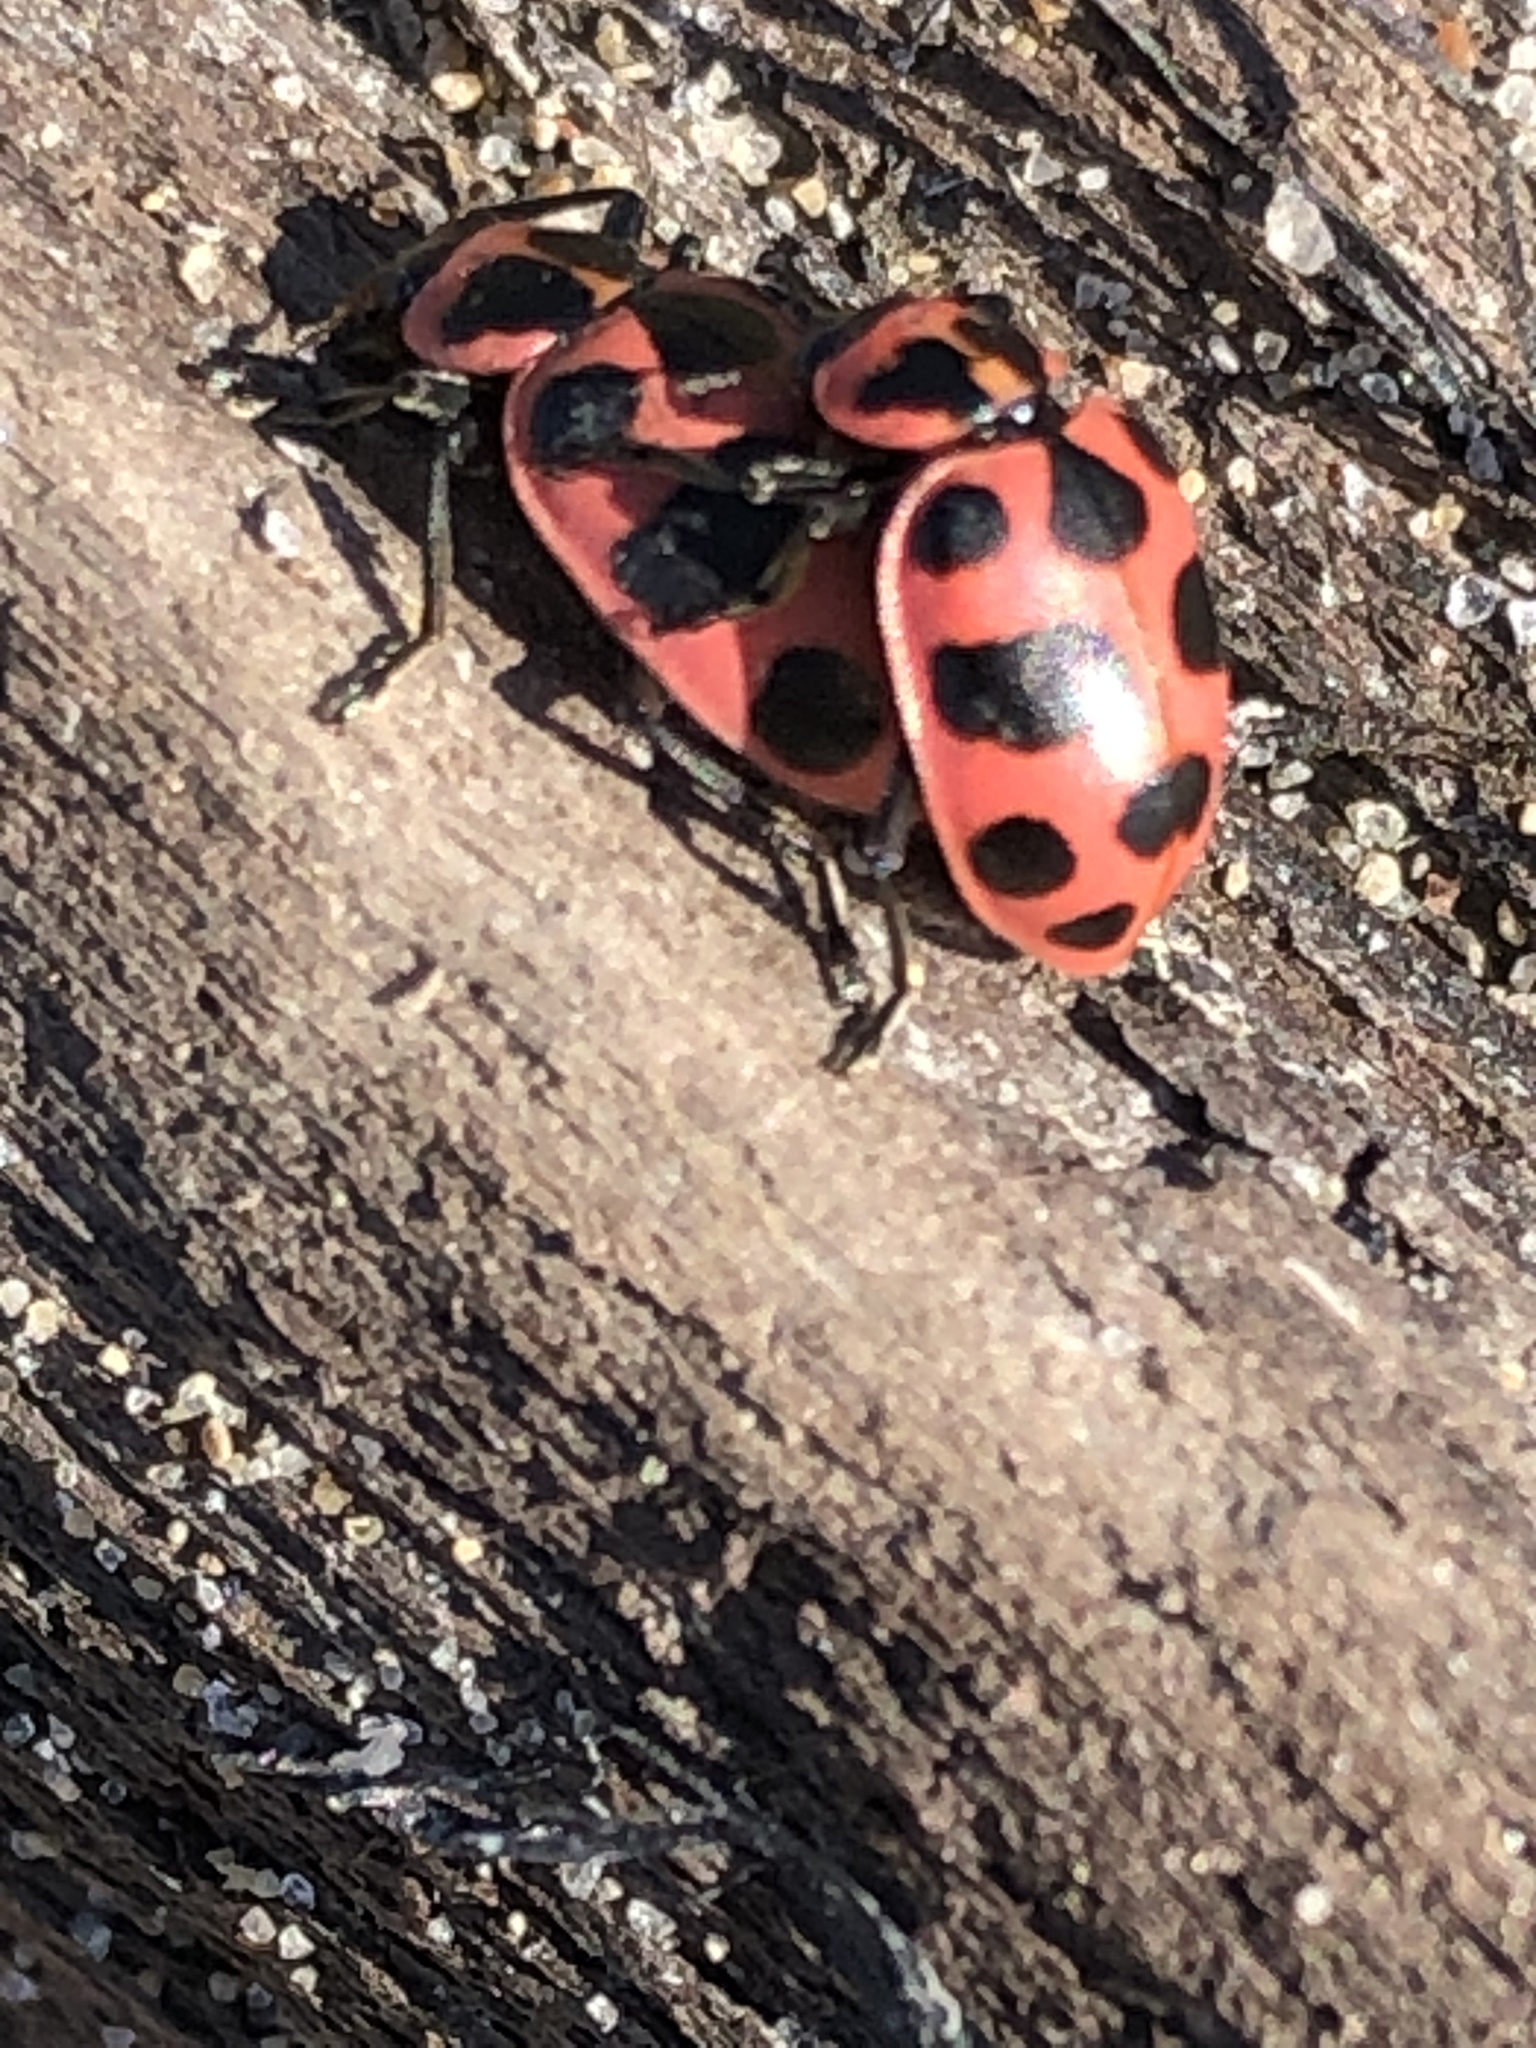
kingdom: Animalia
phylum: Arthropoda
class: Insecta
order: Coleoptera
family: Coccinellidae
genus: Coleomegilla
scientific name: Coleomegilla maculata
